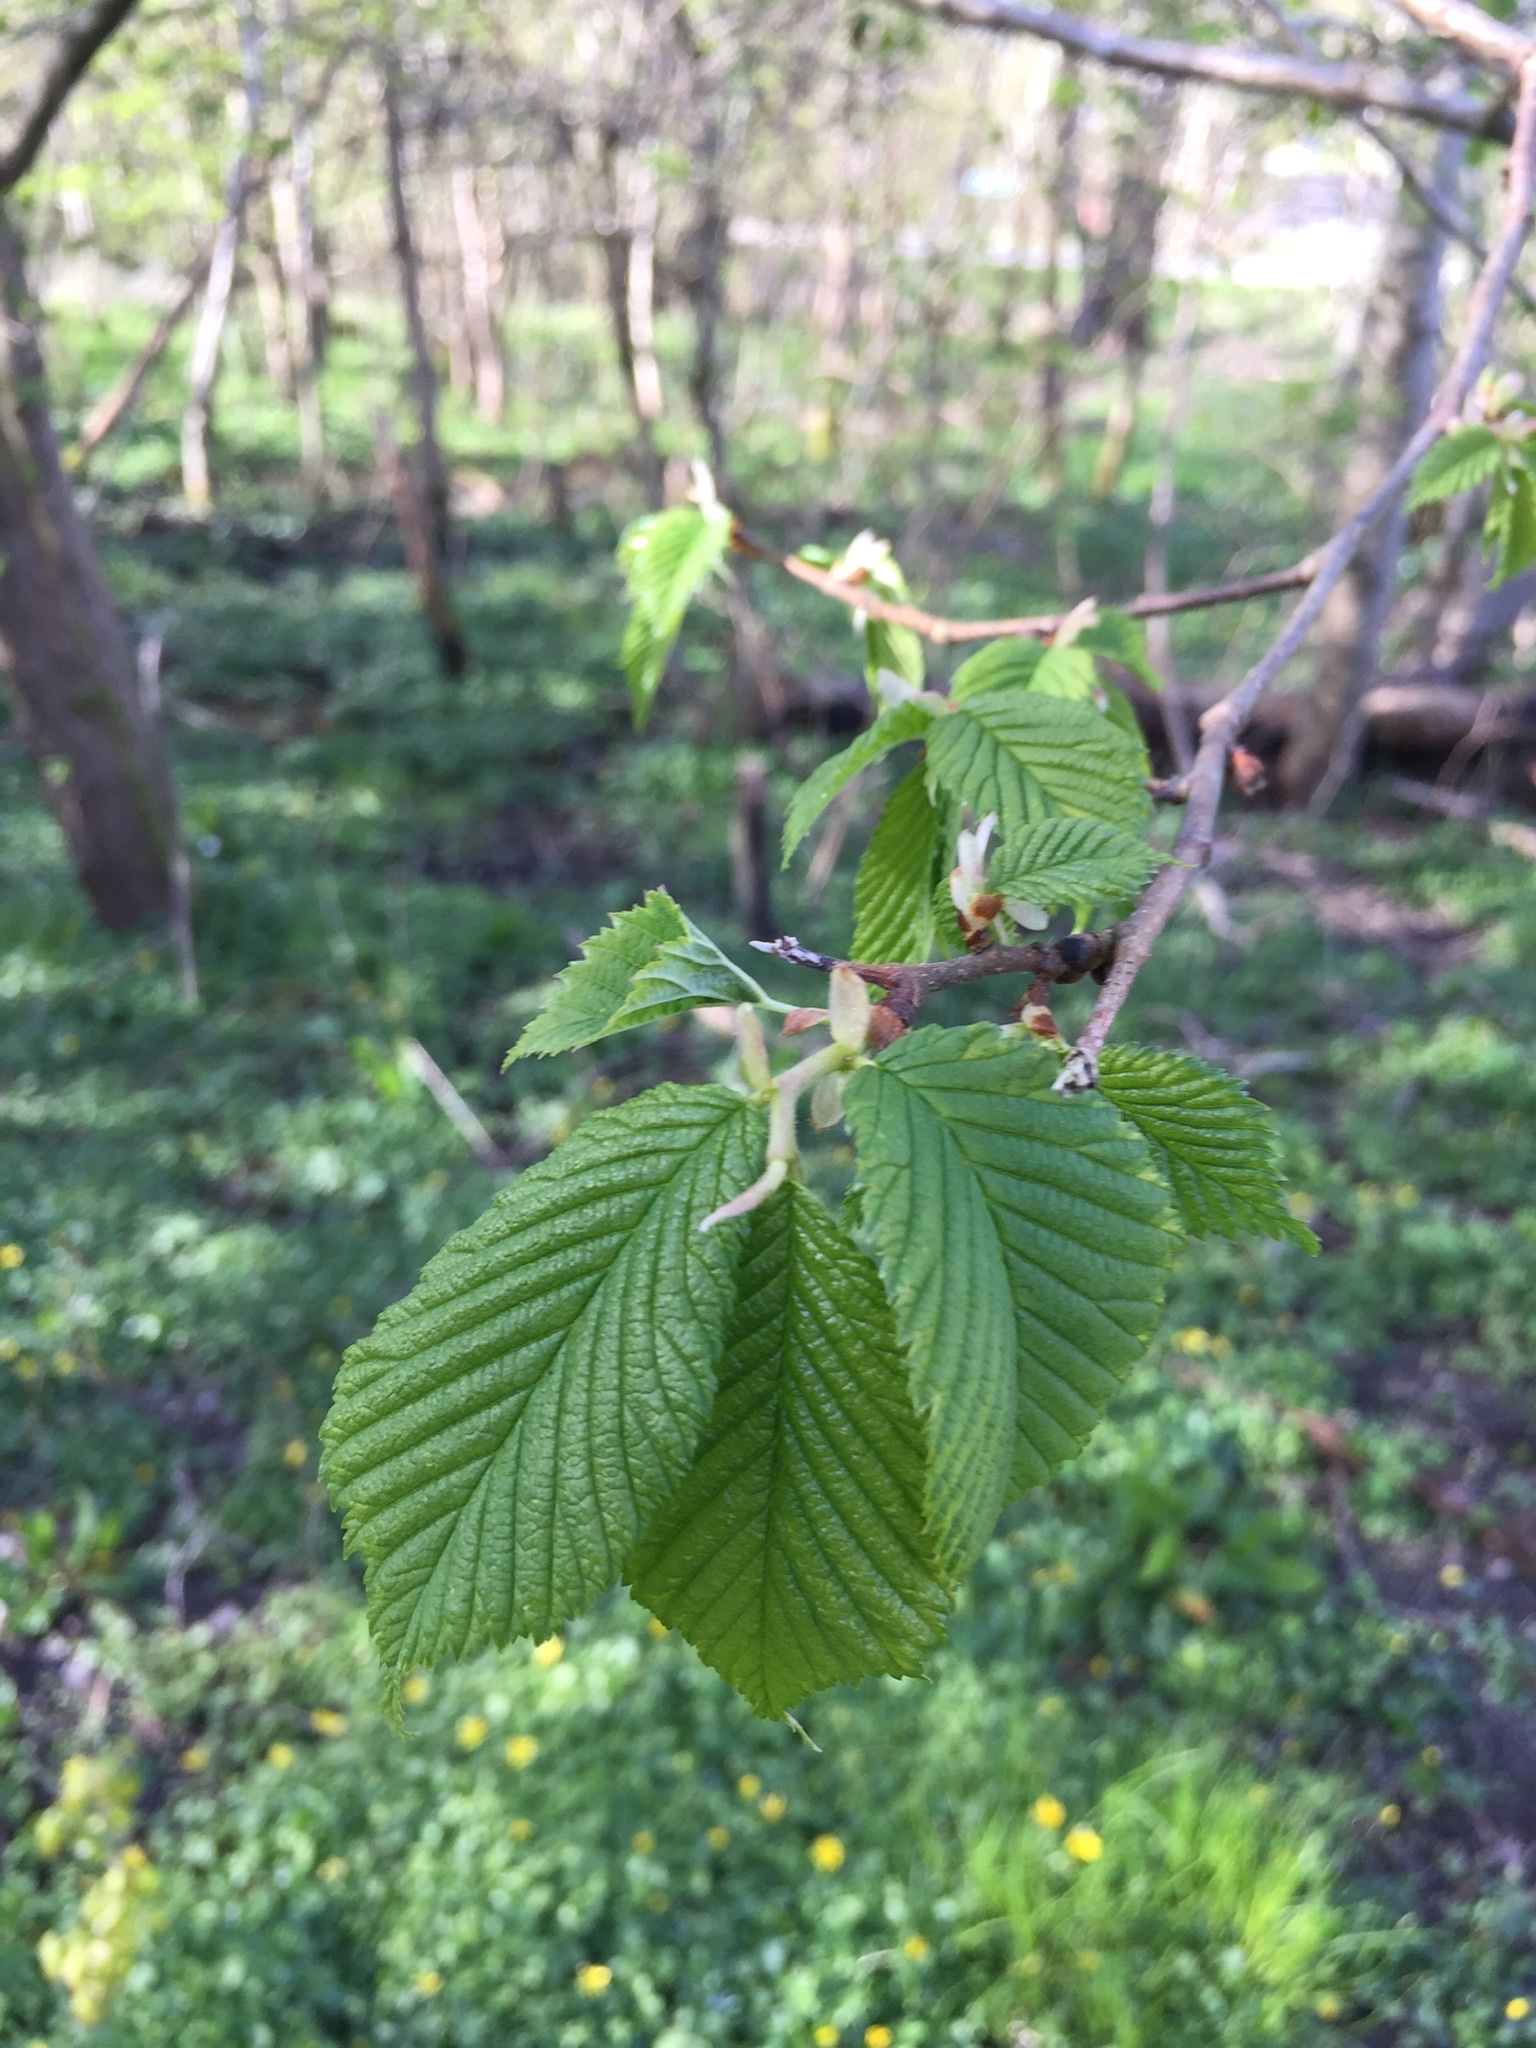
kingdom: Plantae
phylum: Tracheophyta
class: Magnoliopsida
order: Rosales
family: Ulmaceae
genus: Ulmus
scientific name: Ulmus glabra
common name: Wych elm
